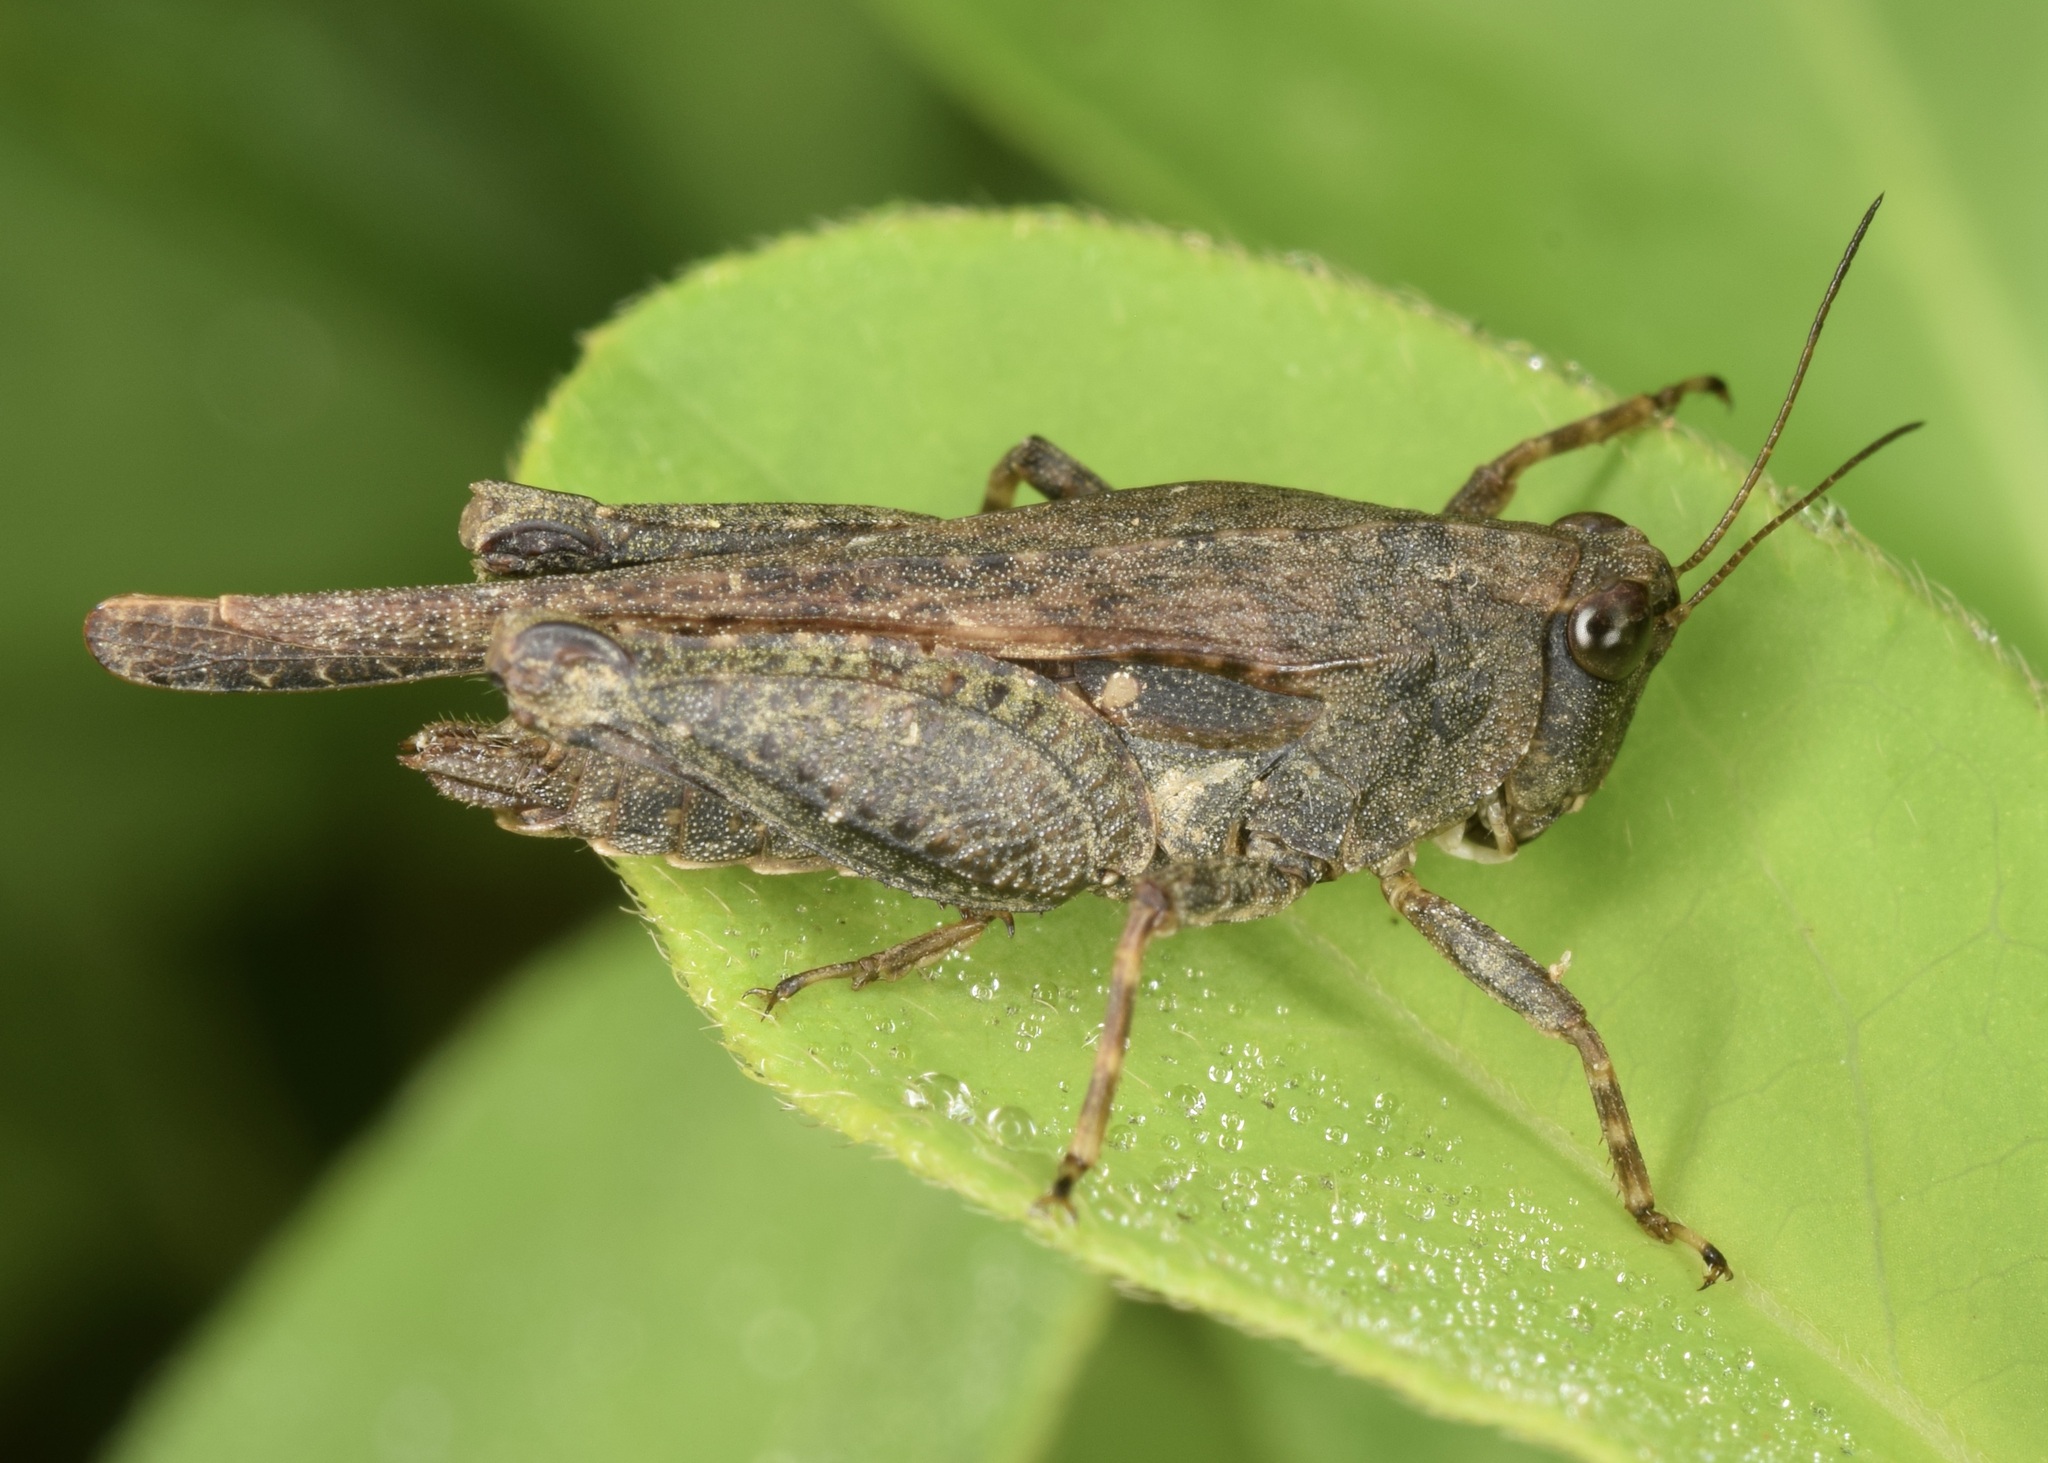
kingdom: Animalia
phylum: Arthropoda
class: Insecta
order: Orthoptera
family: Tetrigidae
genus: Tettigidea
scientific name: Tettigidea laterale
